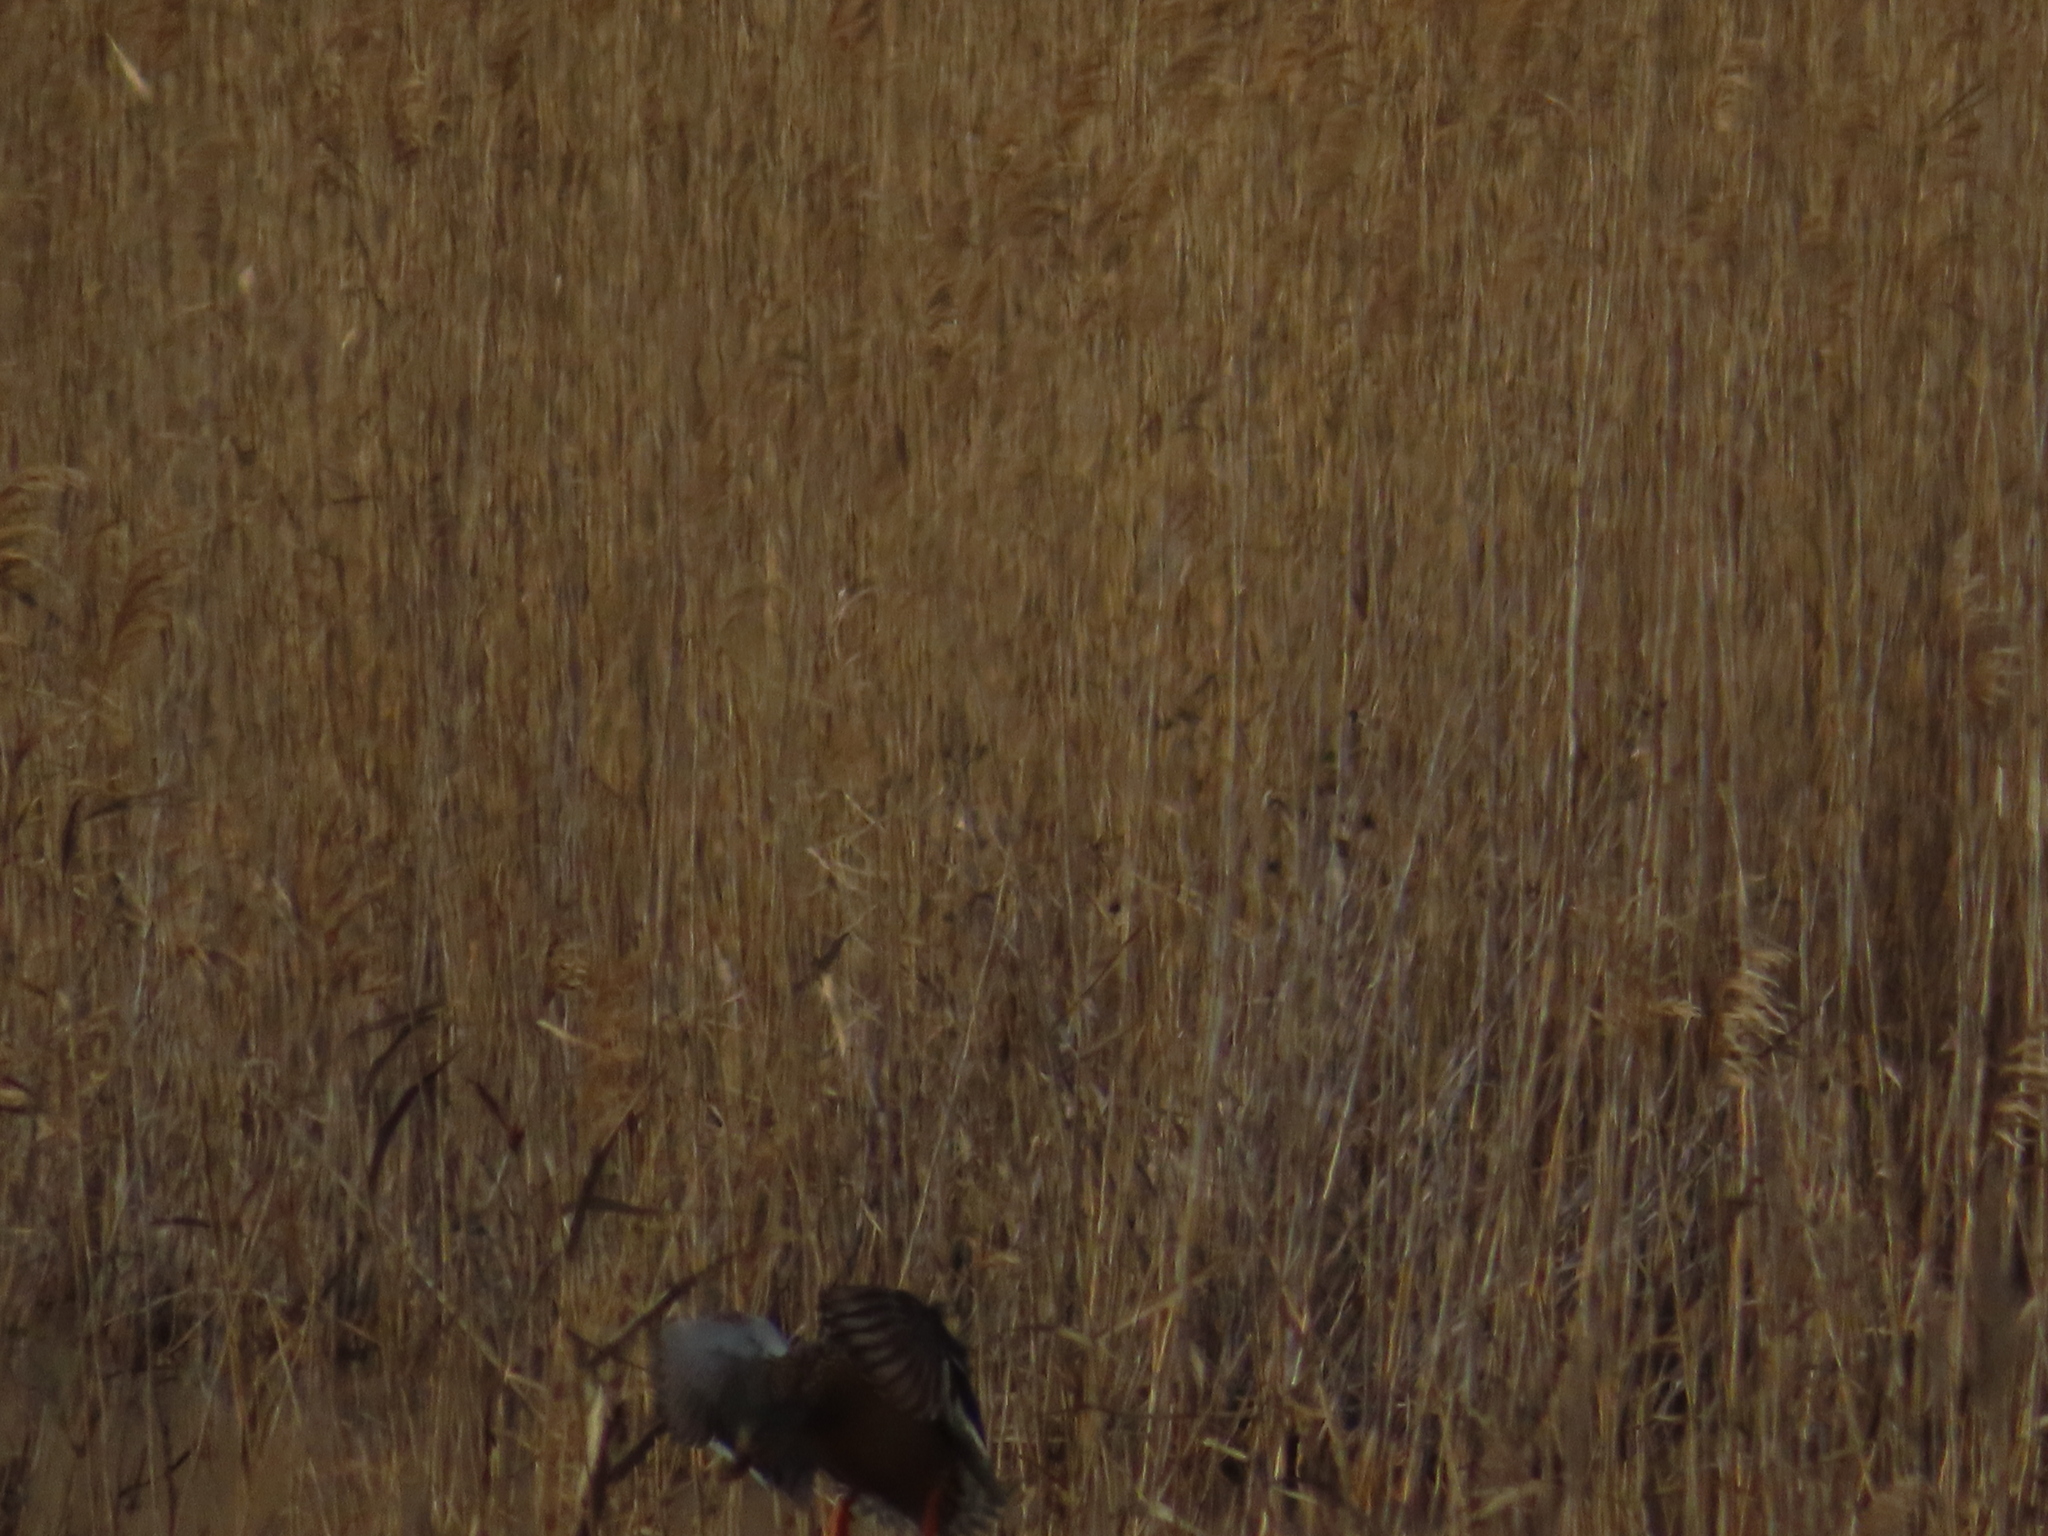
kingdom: Animalia
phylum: Chordata
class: Aves
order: Anseriformes
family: Anatidae
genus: Anas
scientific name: Anas rubripes
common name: American black duck
